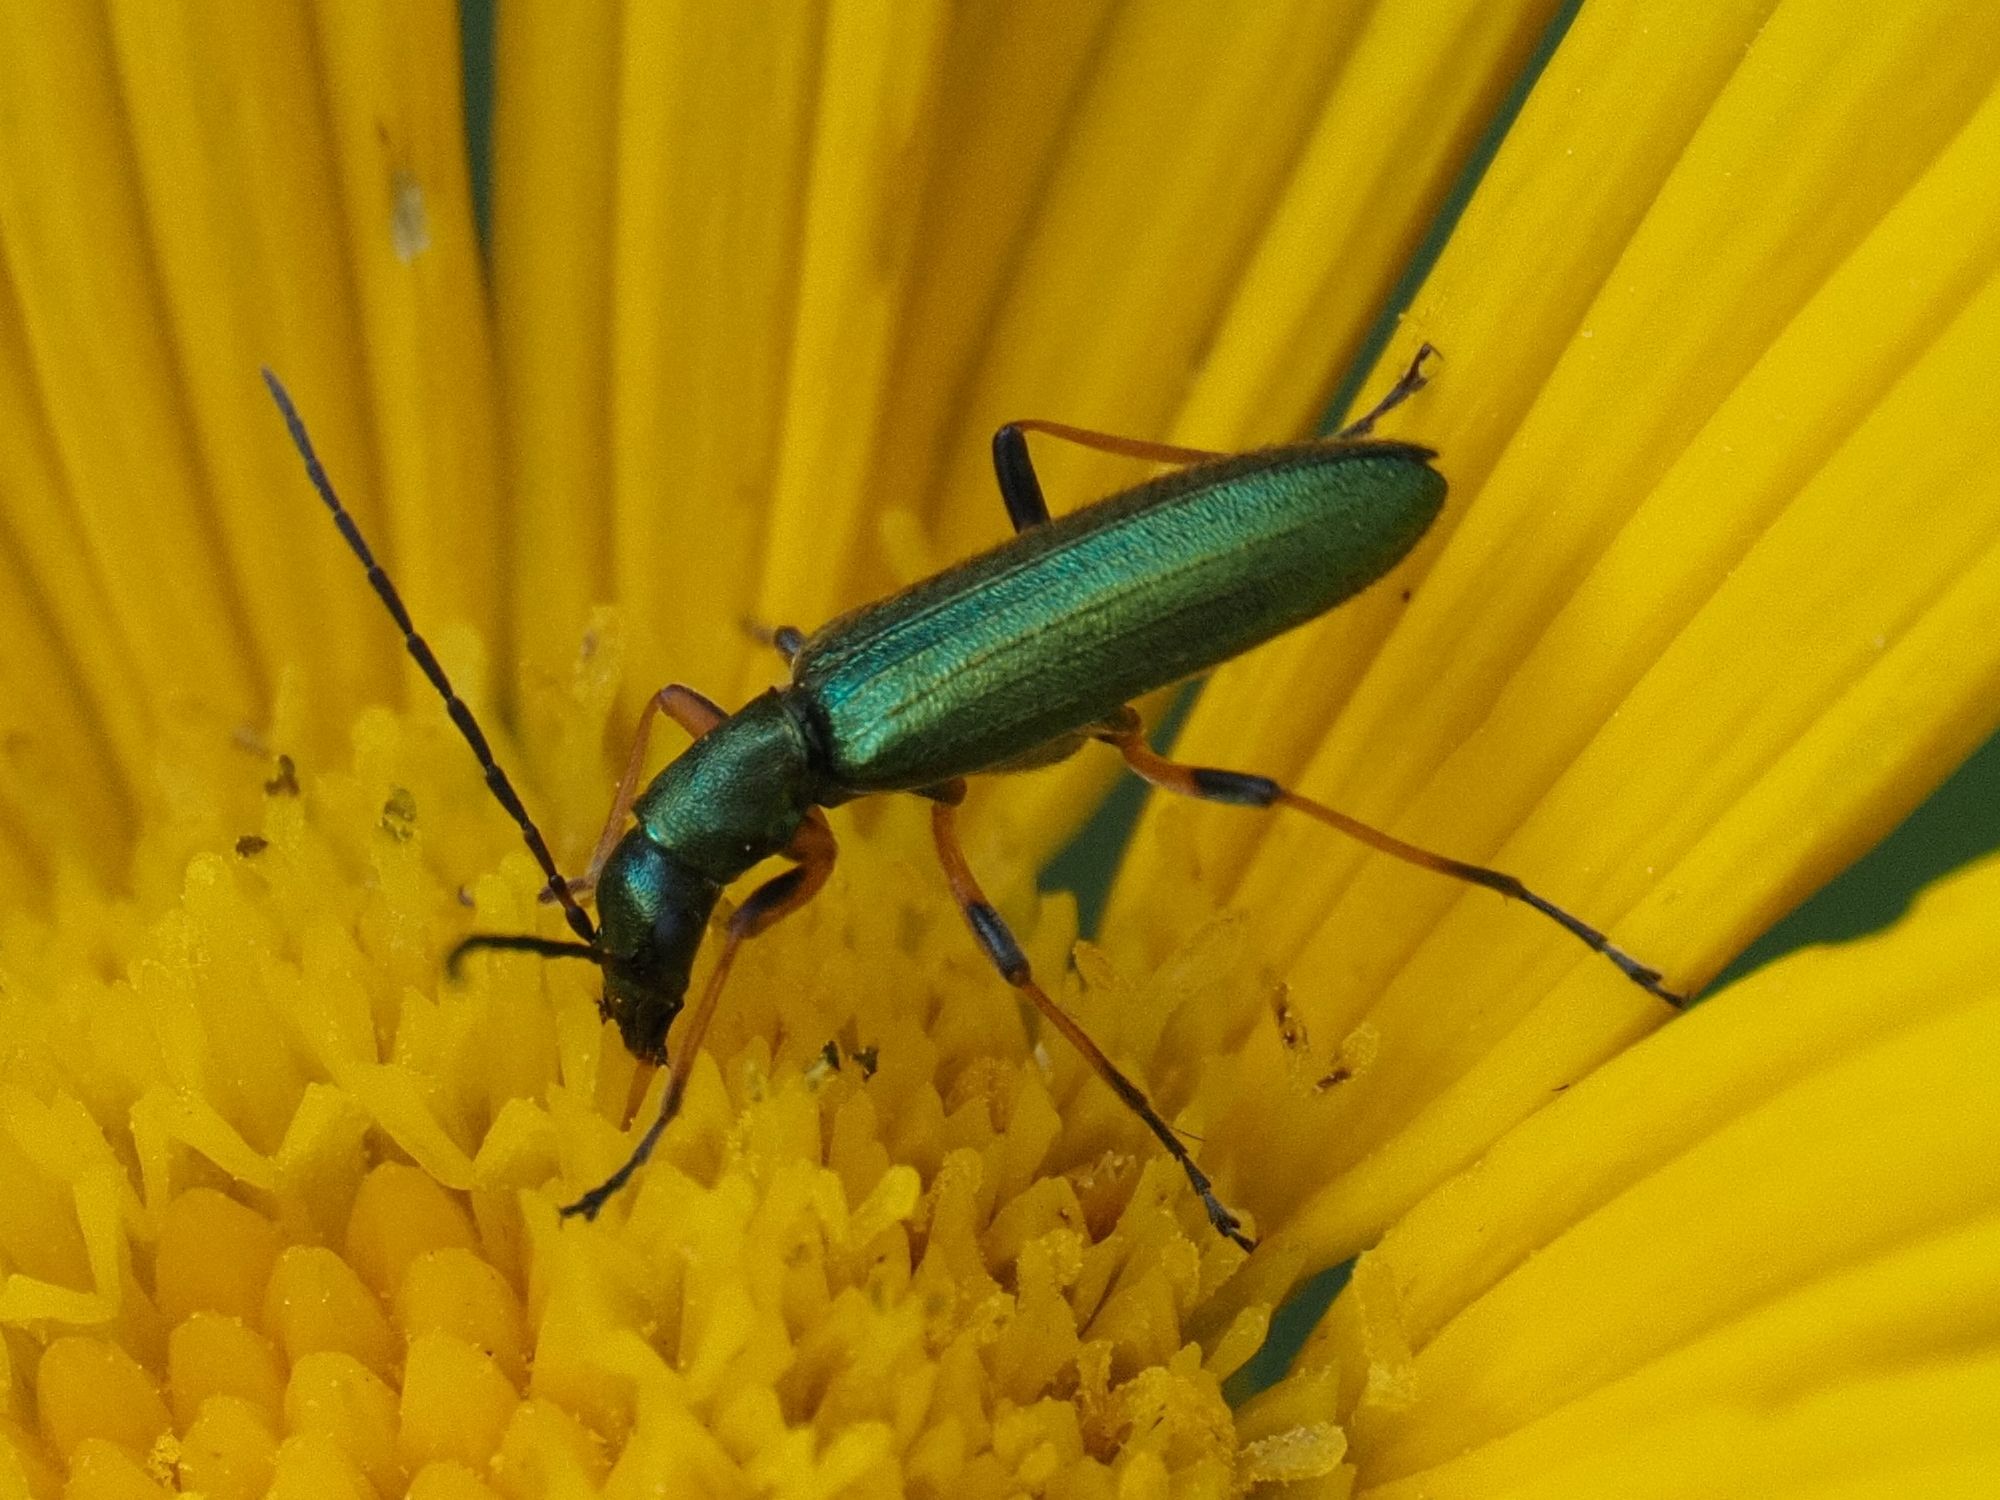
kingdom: Animalia
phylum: Arthropoda
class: Insecta
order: Coleoptera
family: Oedemeridae
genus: Chrysanthia
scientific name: Chrysanthia geniculata
